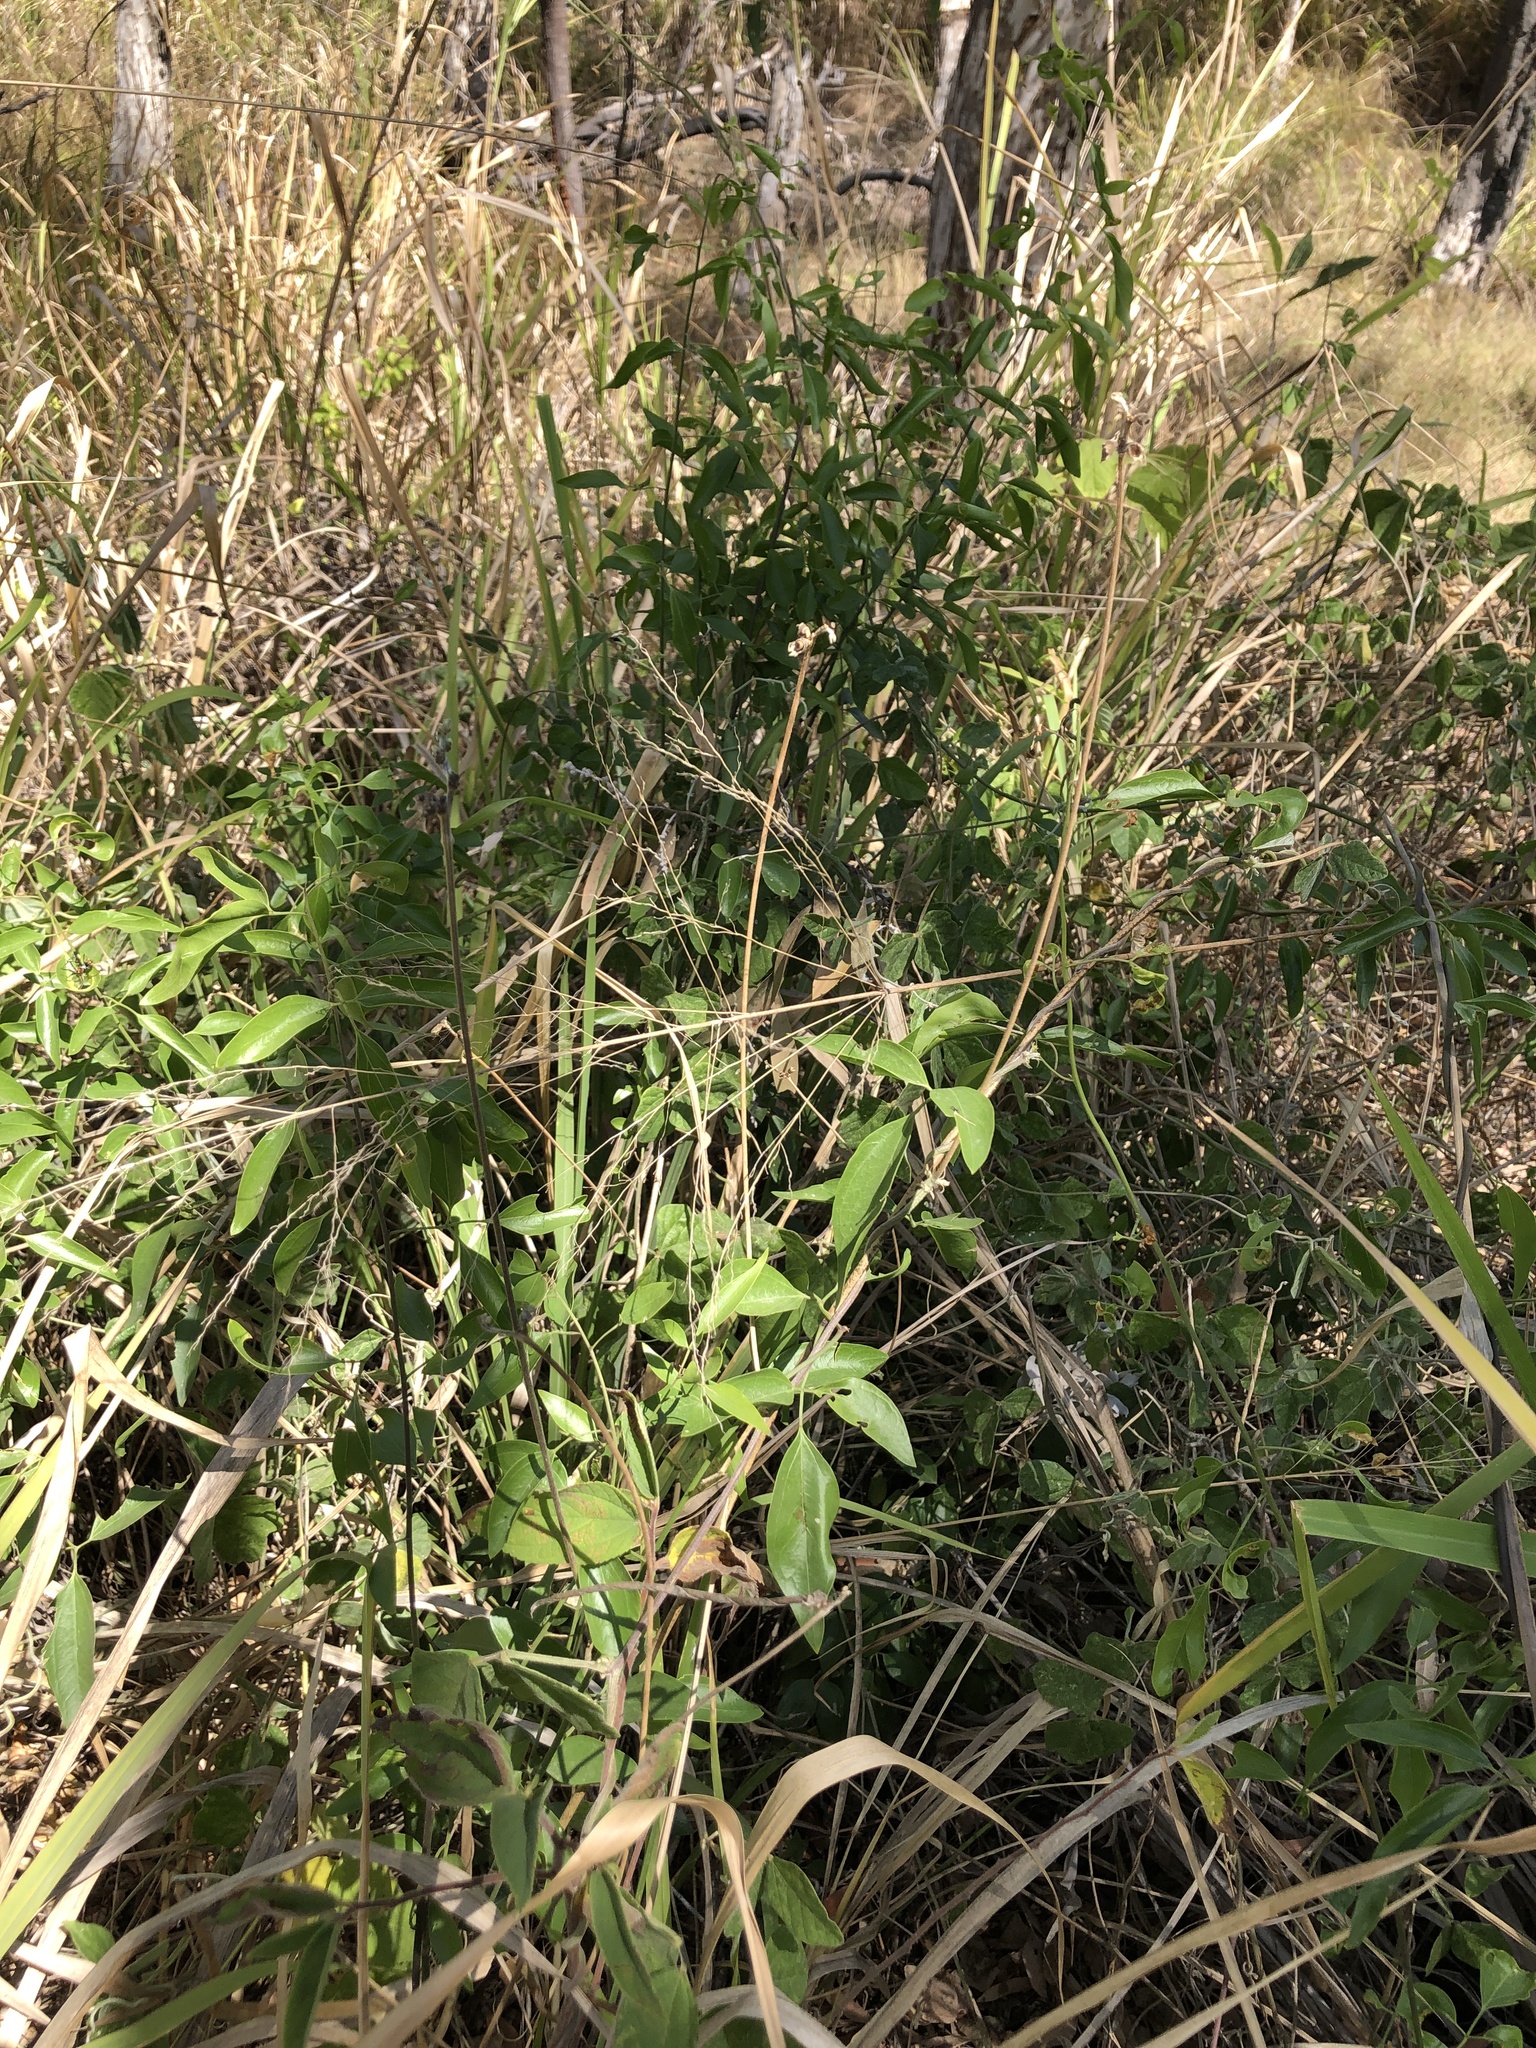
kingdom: Plantae
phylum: Tracheophyta
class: Magnoliopsida
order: Lamiales
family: Oleaceae
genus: Jasminum
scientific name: Jasminum didymum
